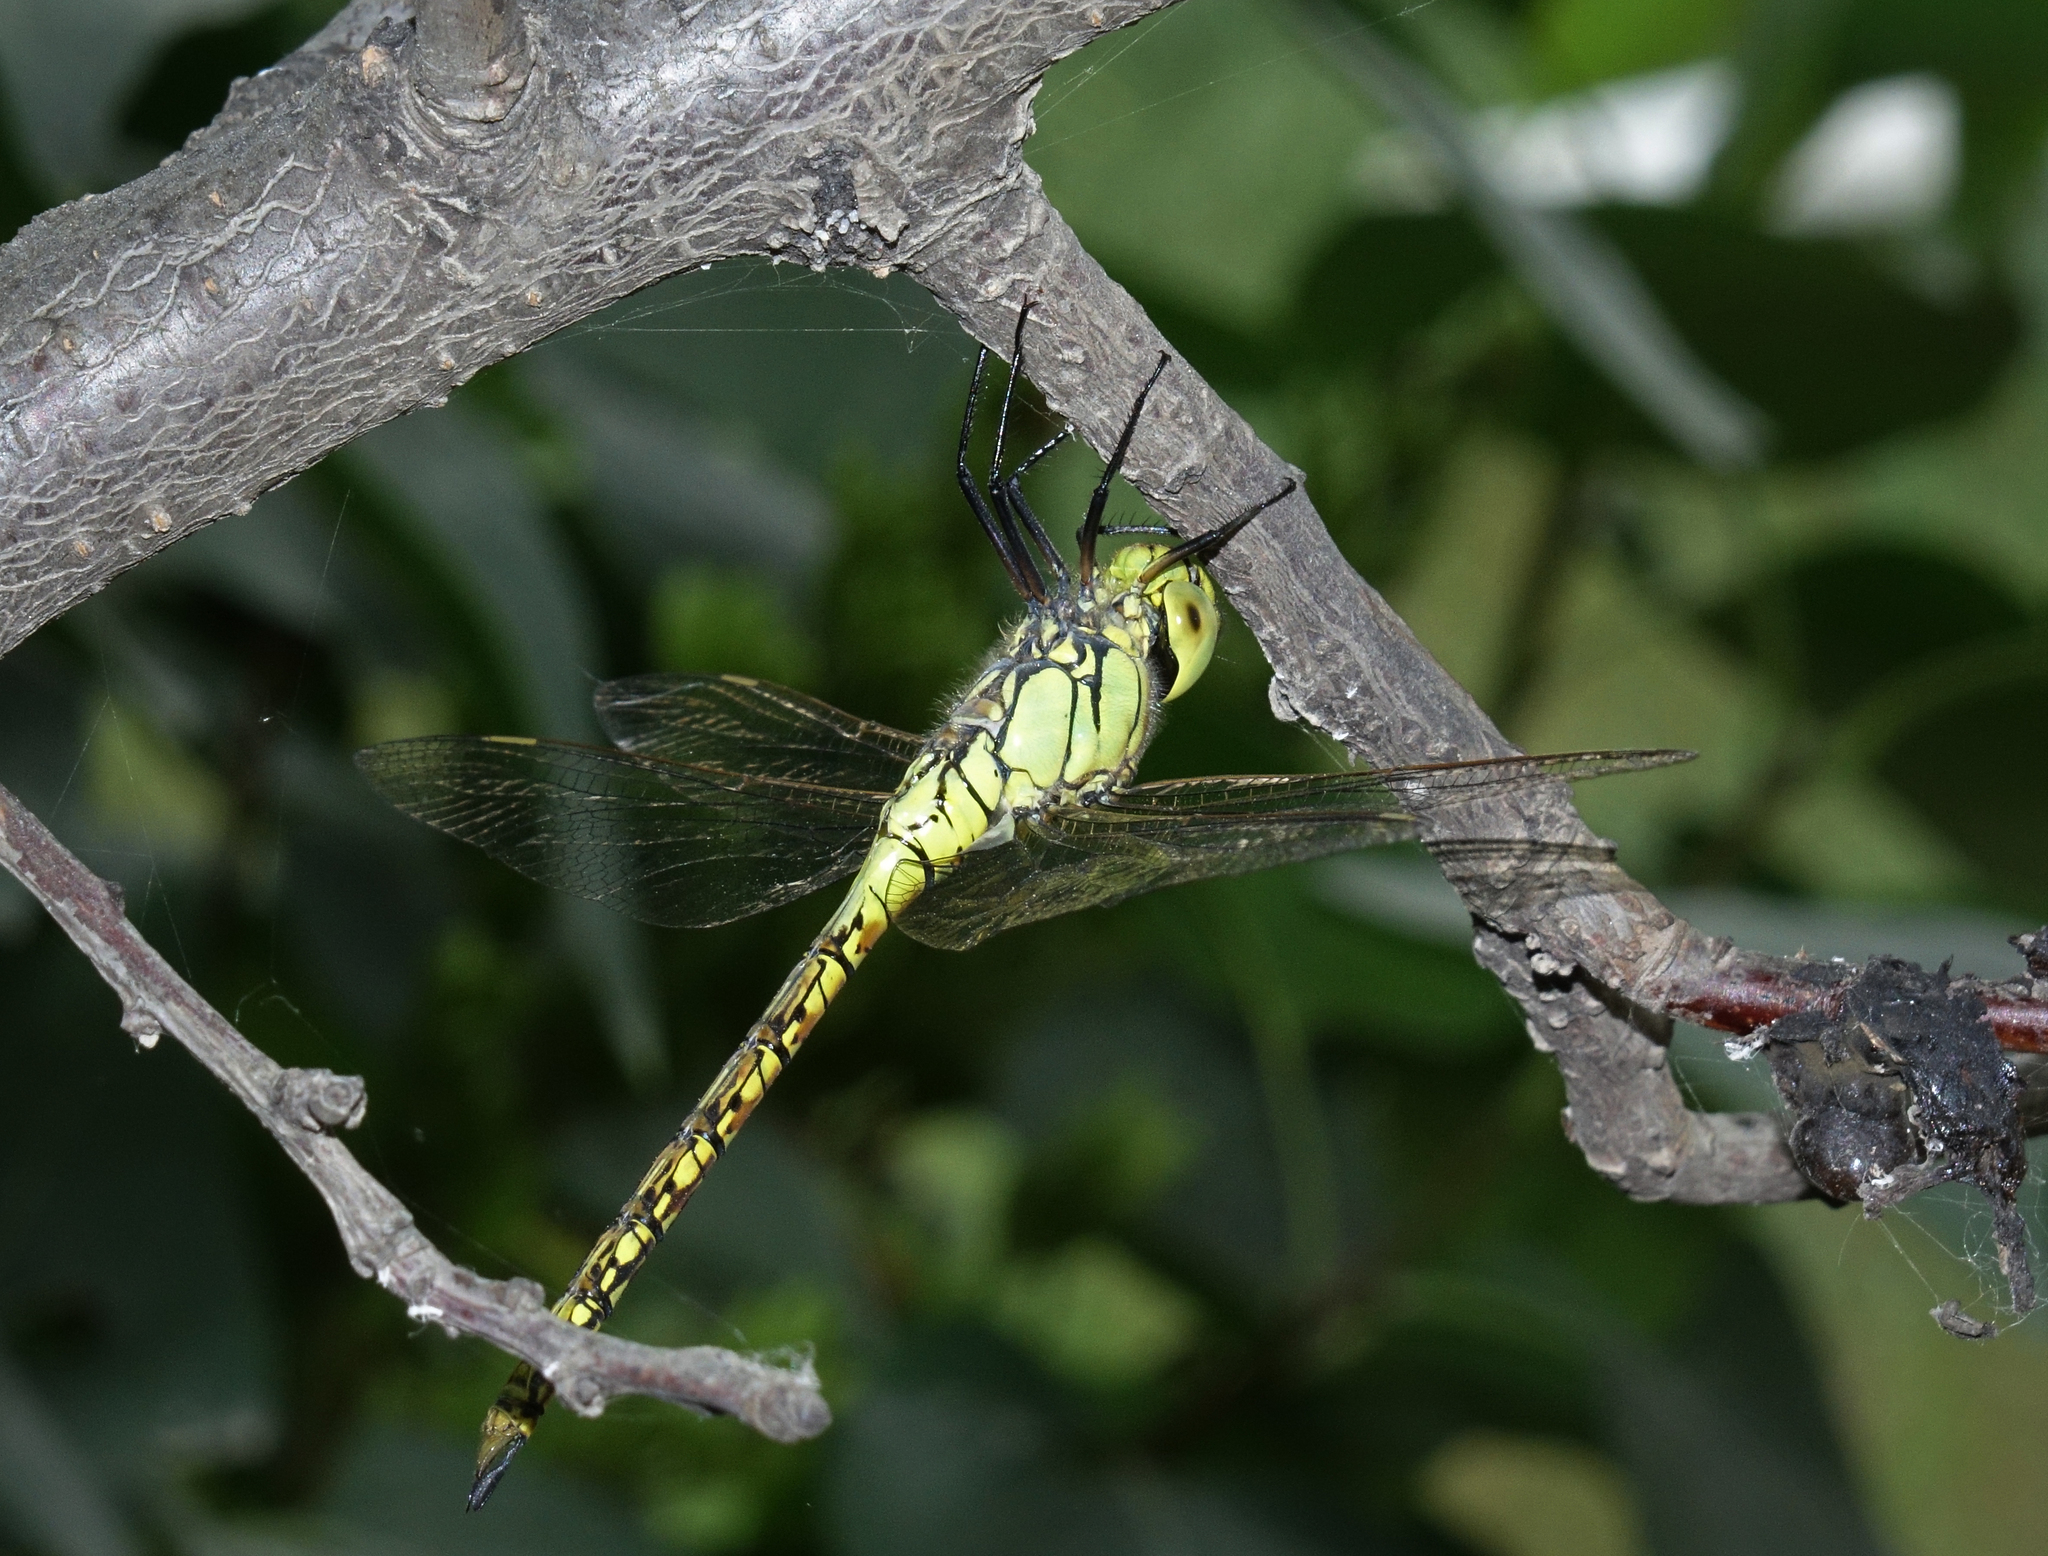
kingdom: Animalia
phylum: Arthropoda
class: Insecta
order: Odonata
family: Aeshnidae
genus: Aeshna
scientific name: Aeshna affinis
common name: Southern migrant hawker
